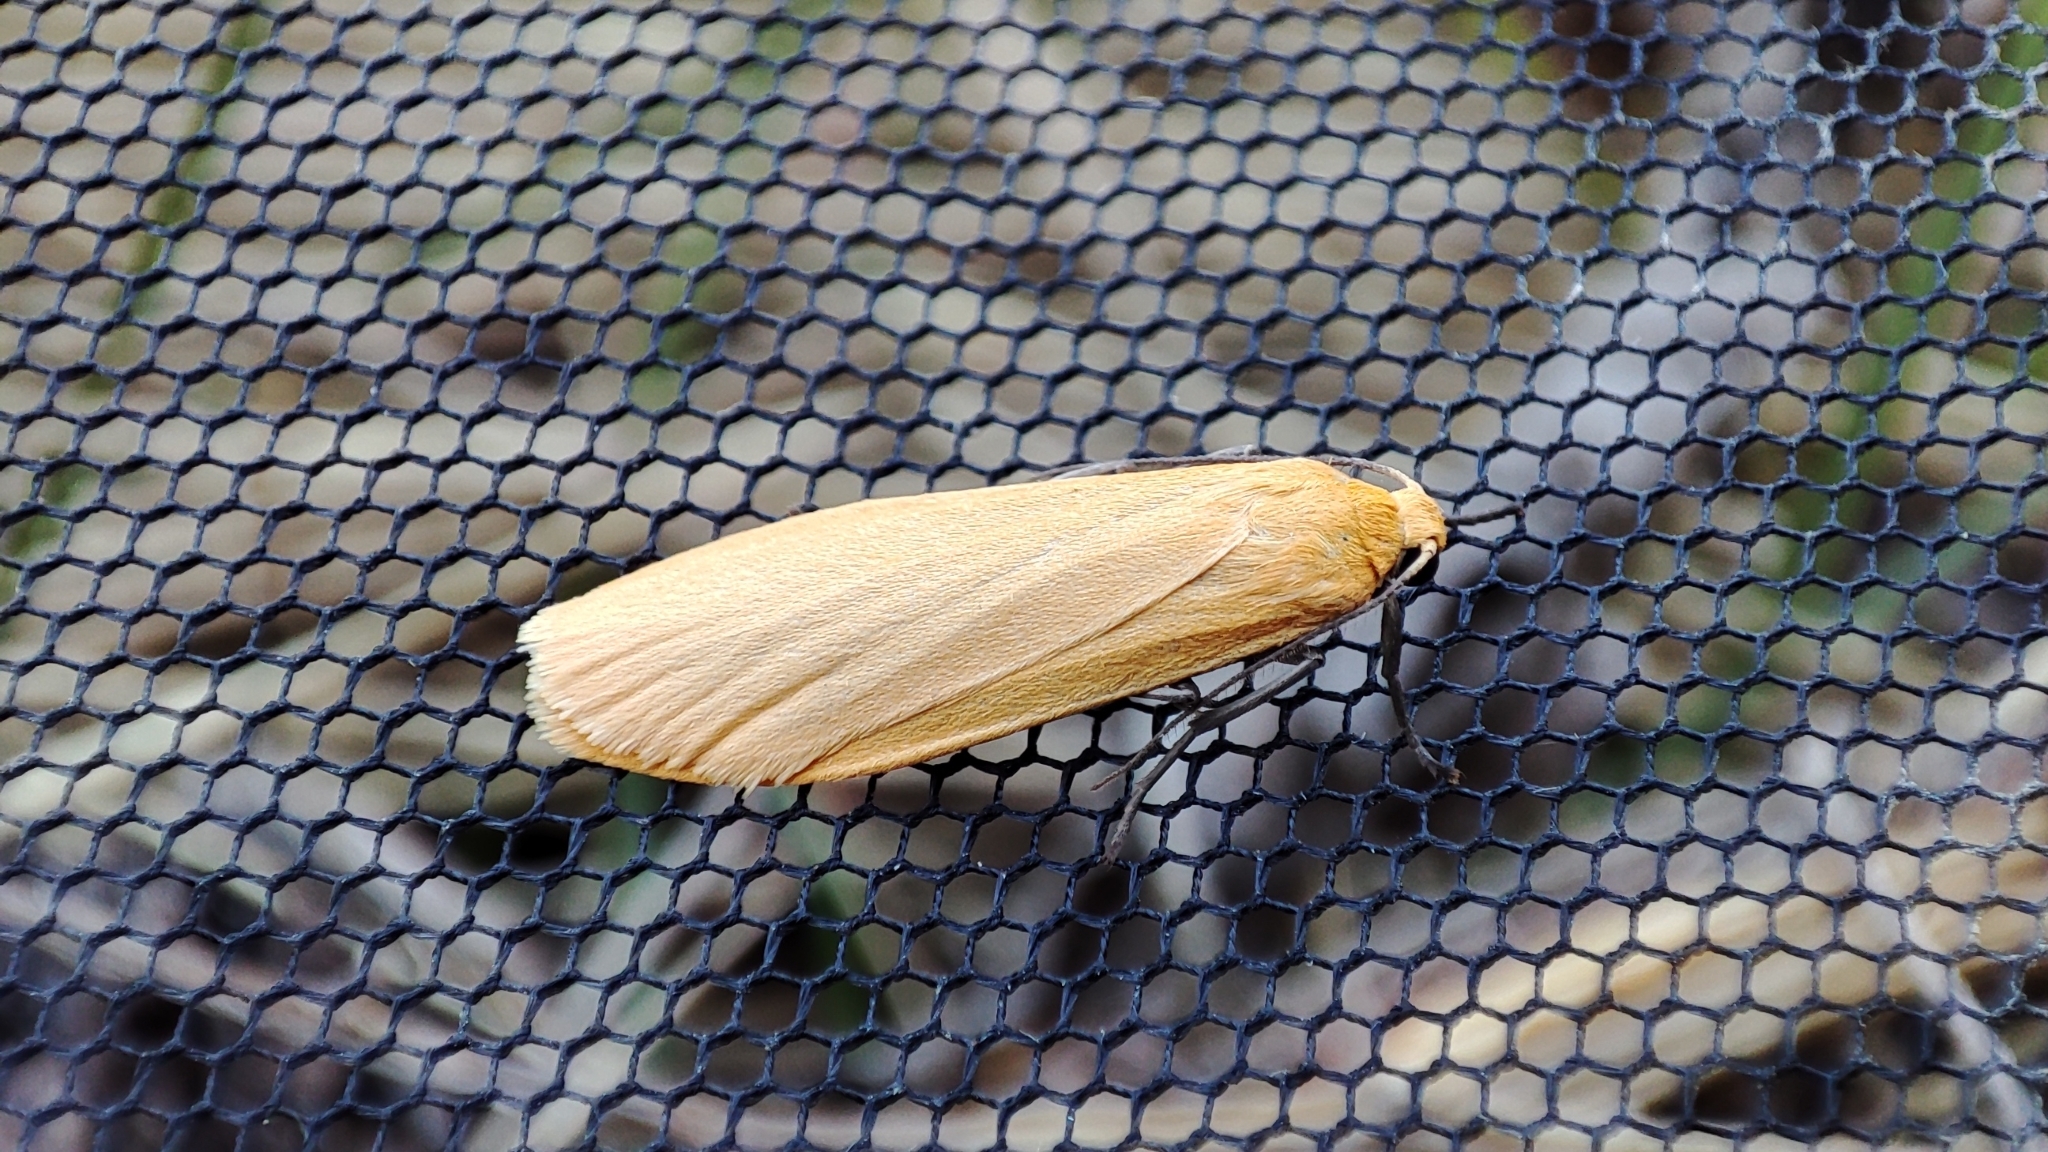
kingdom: Animalia
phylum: Arthropoda
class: Insecta
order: Lepidoptera
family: Erebidae
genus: Wittia
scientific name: Wittia sororcula
